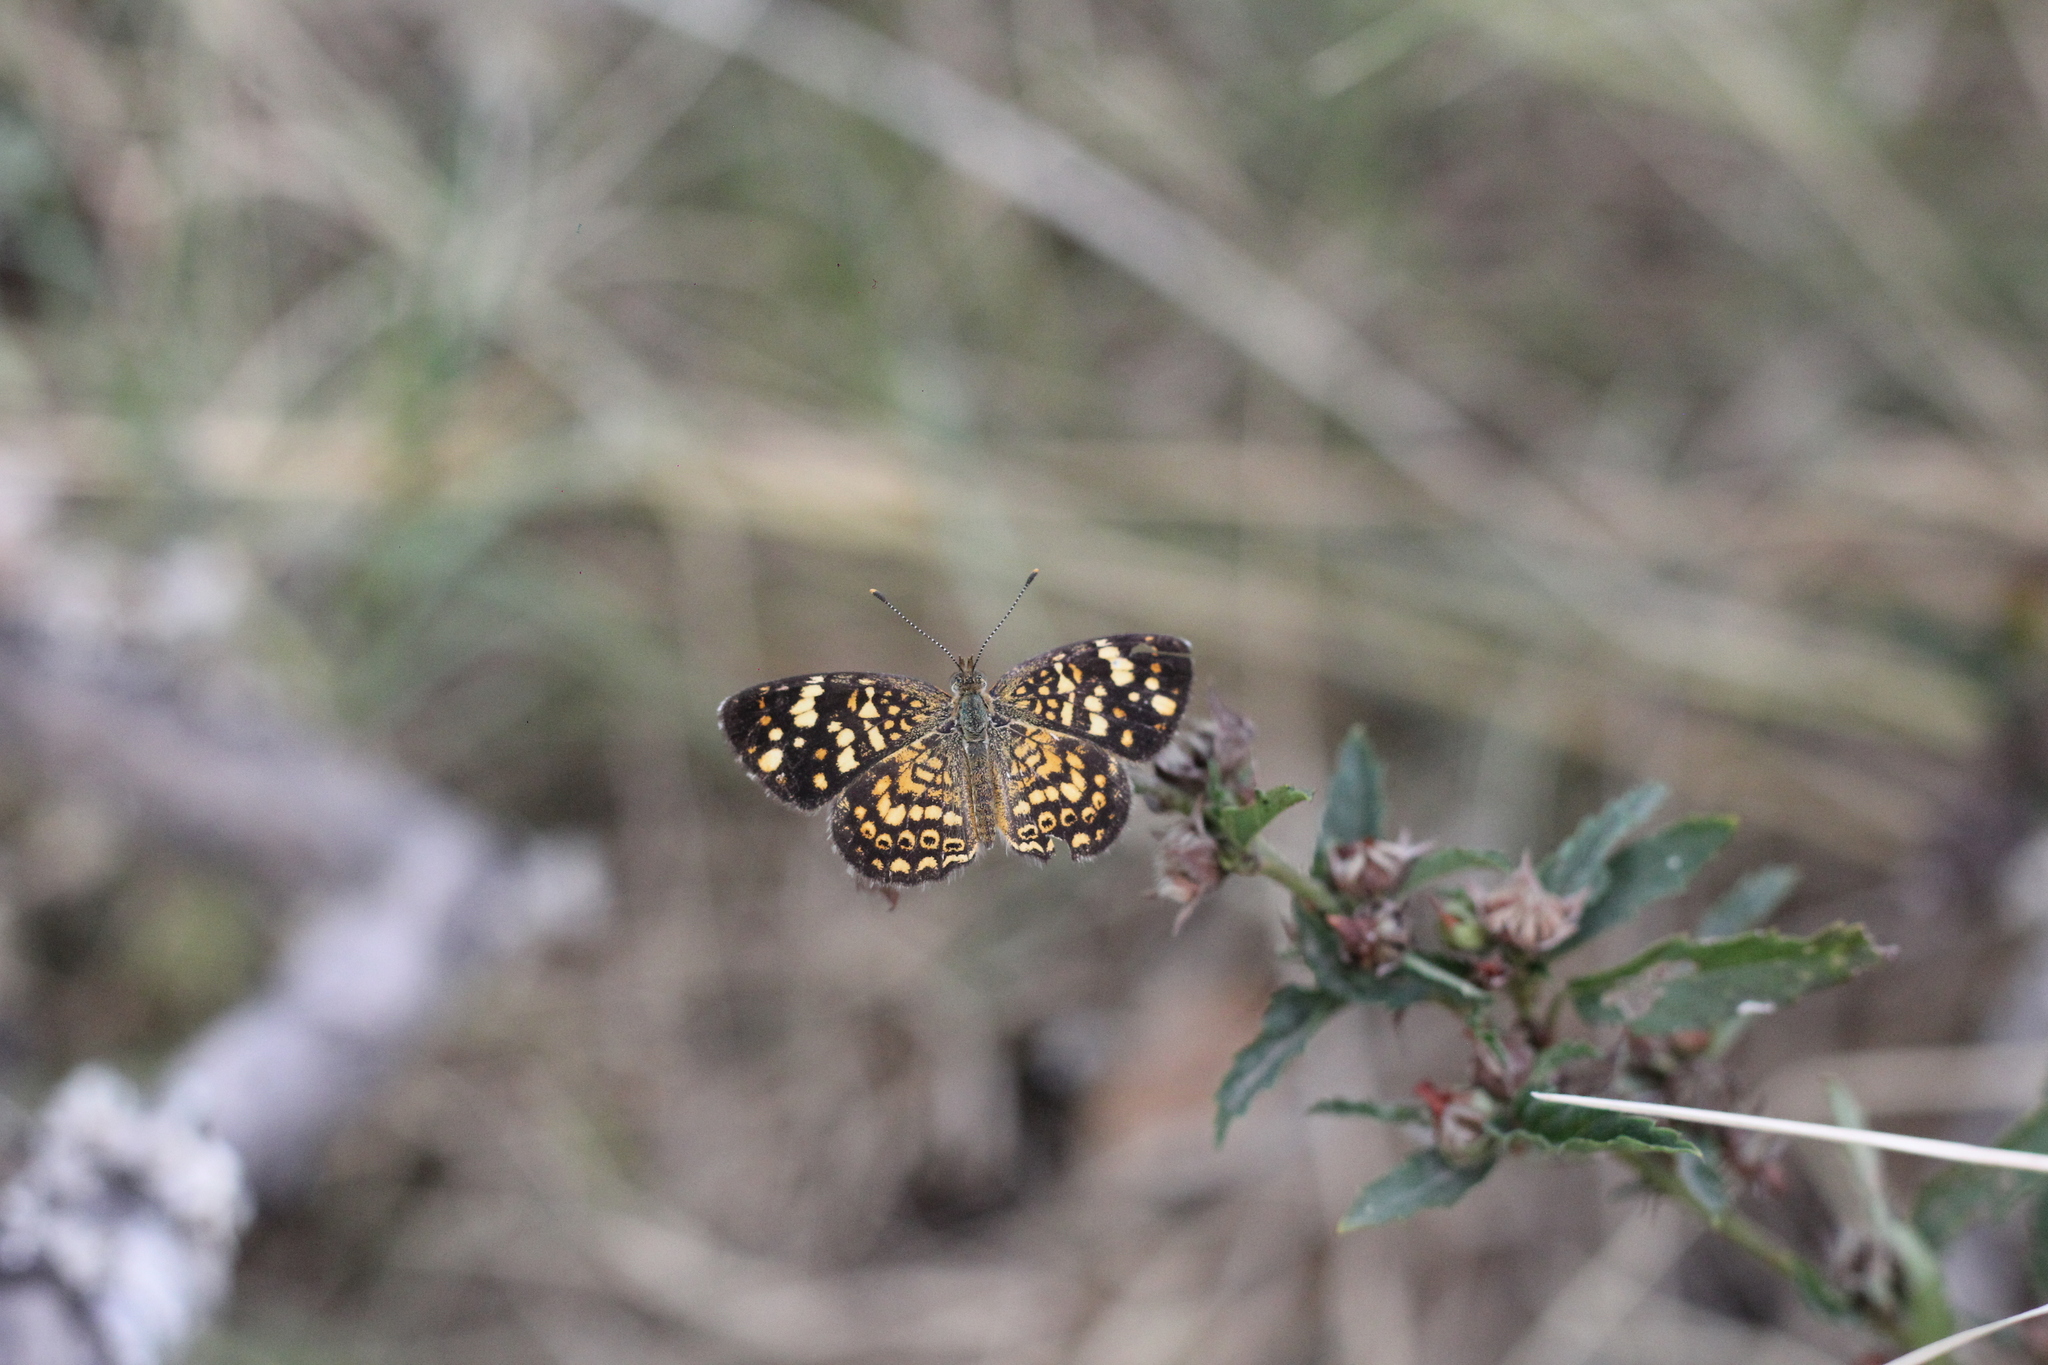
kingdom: Animalia
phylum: Arthropoda
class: Insecta
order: Lepidoptera
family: Nymphalidae
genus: Phystis
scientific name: Phystis simois
